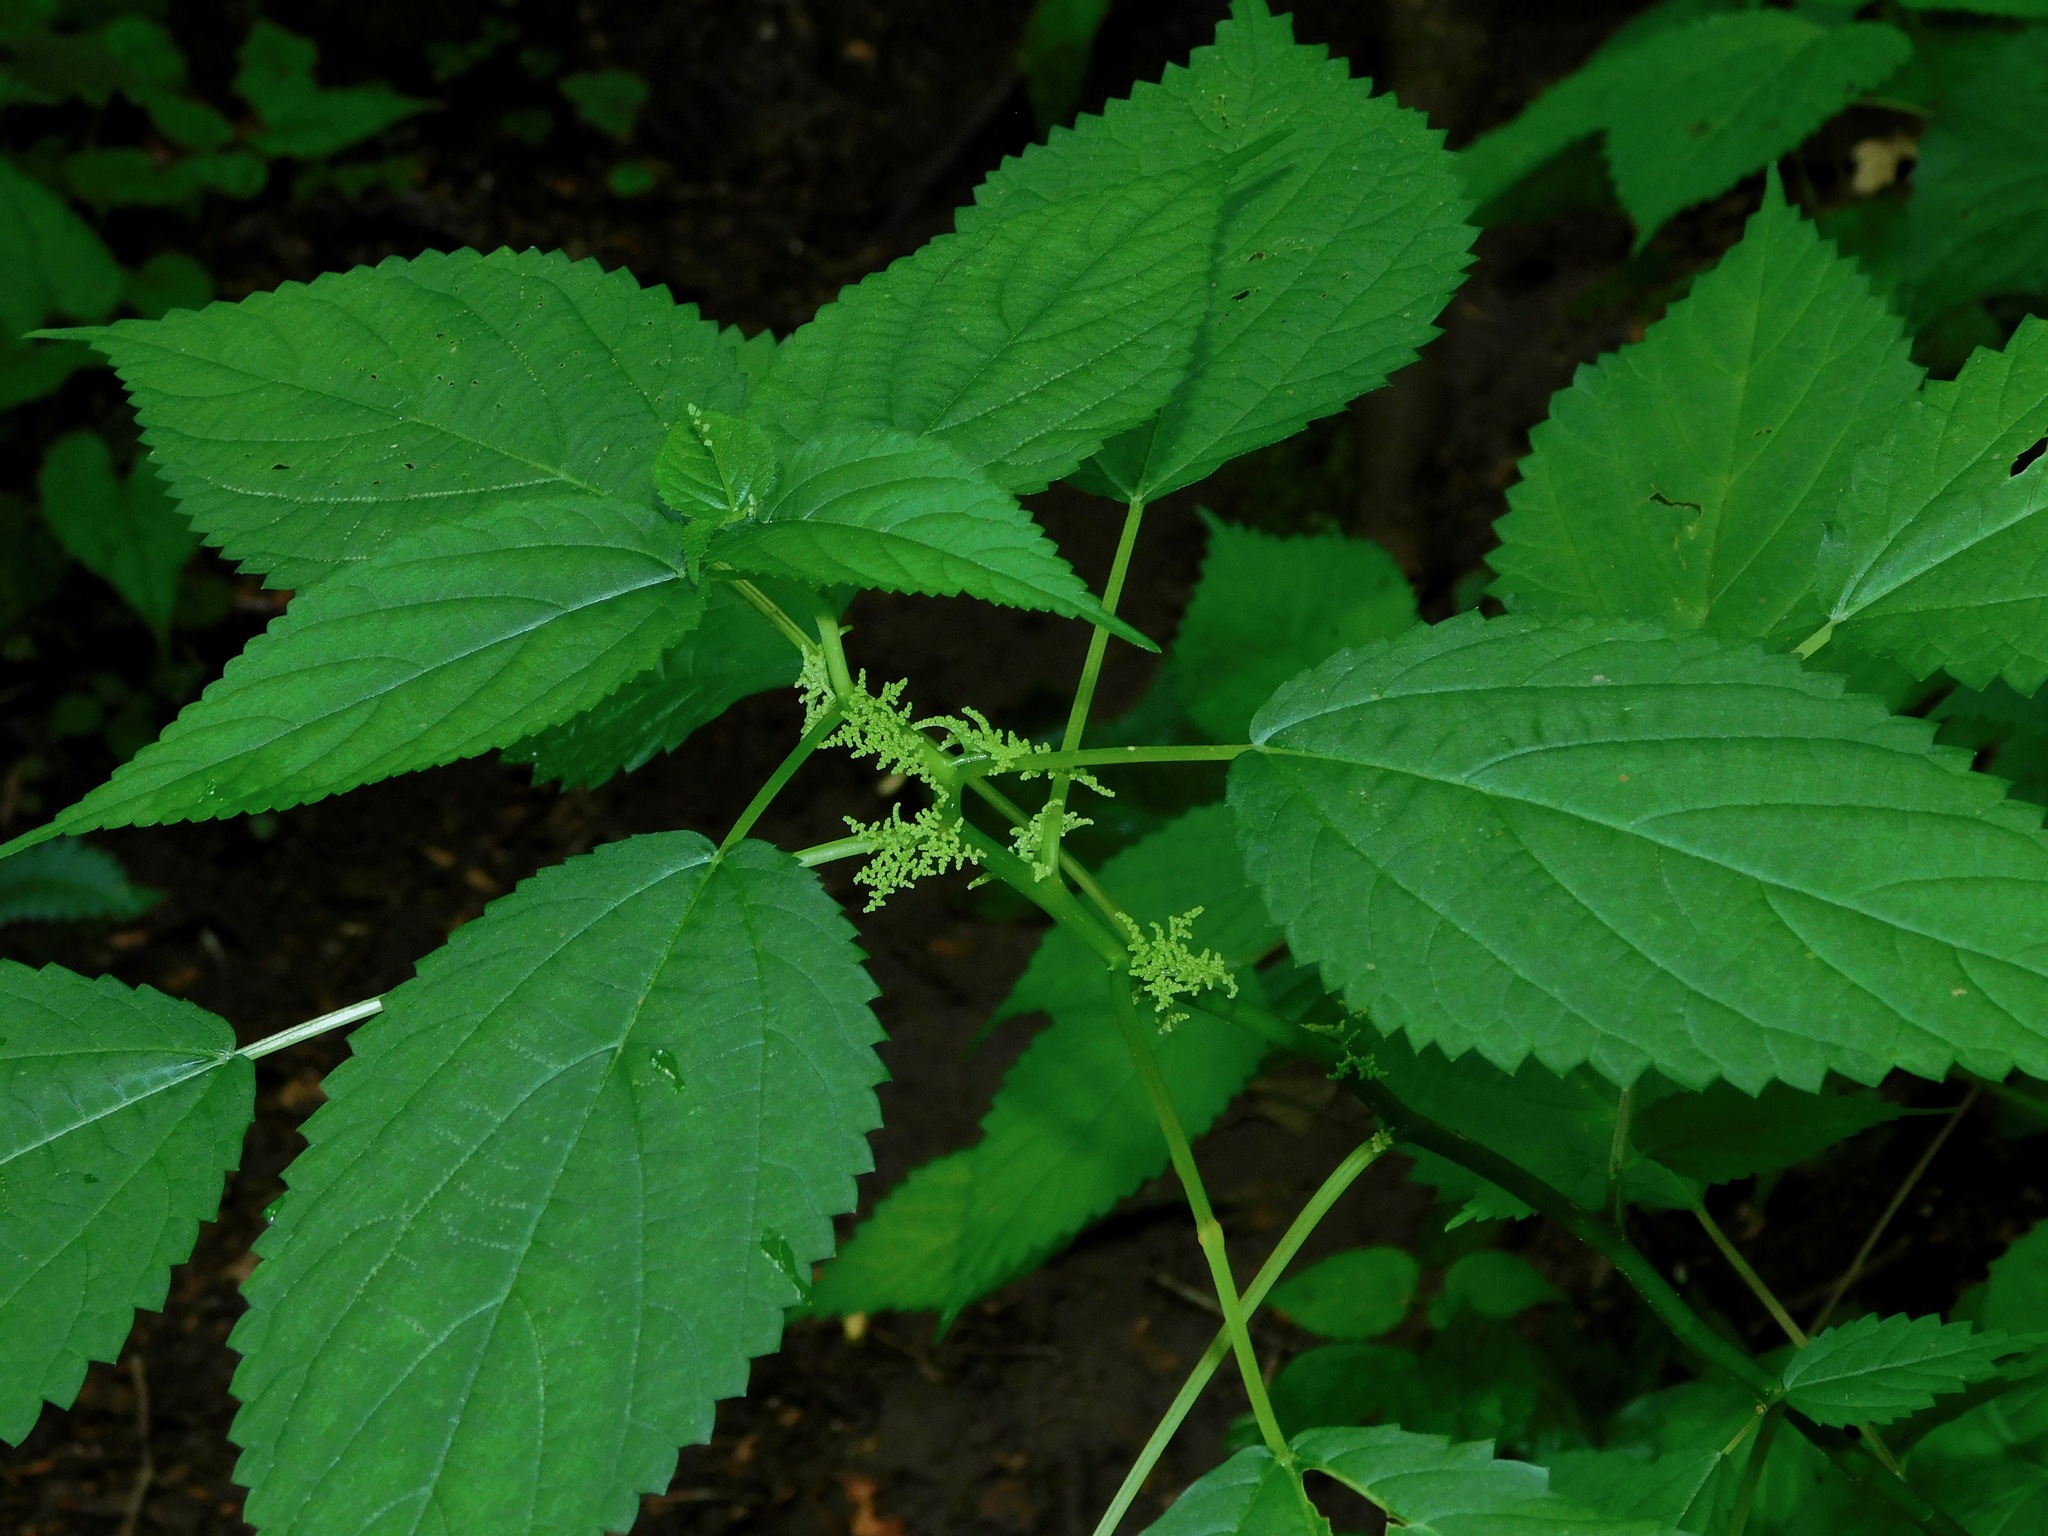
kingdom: Plantae
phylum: Tracheophyta
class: Magnoliopsida
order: Rosales
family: Urticaceae
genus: Laportea
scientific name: Laportea canadensis
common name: Canada nettle
